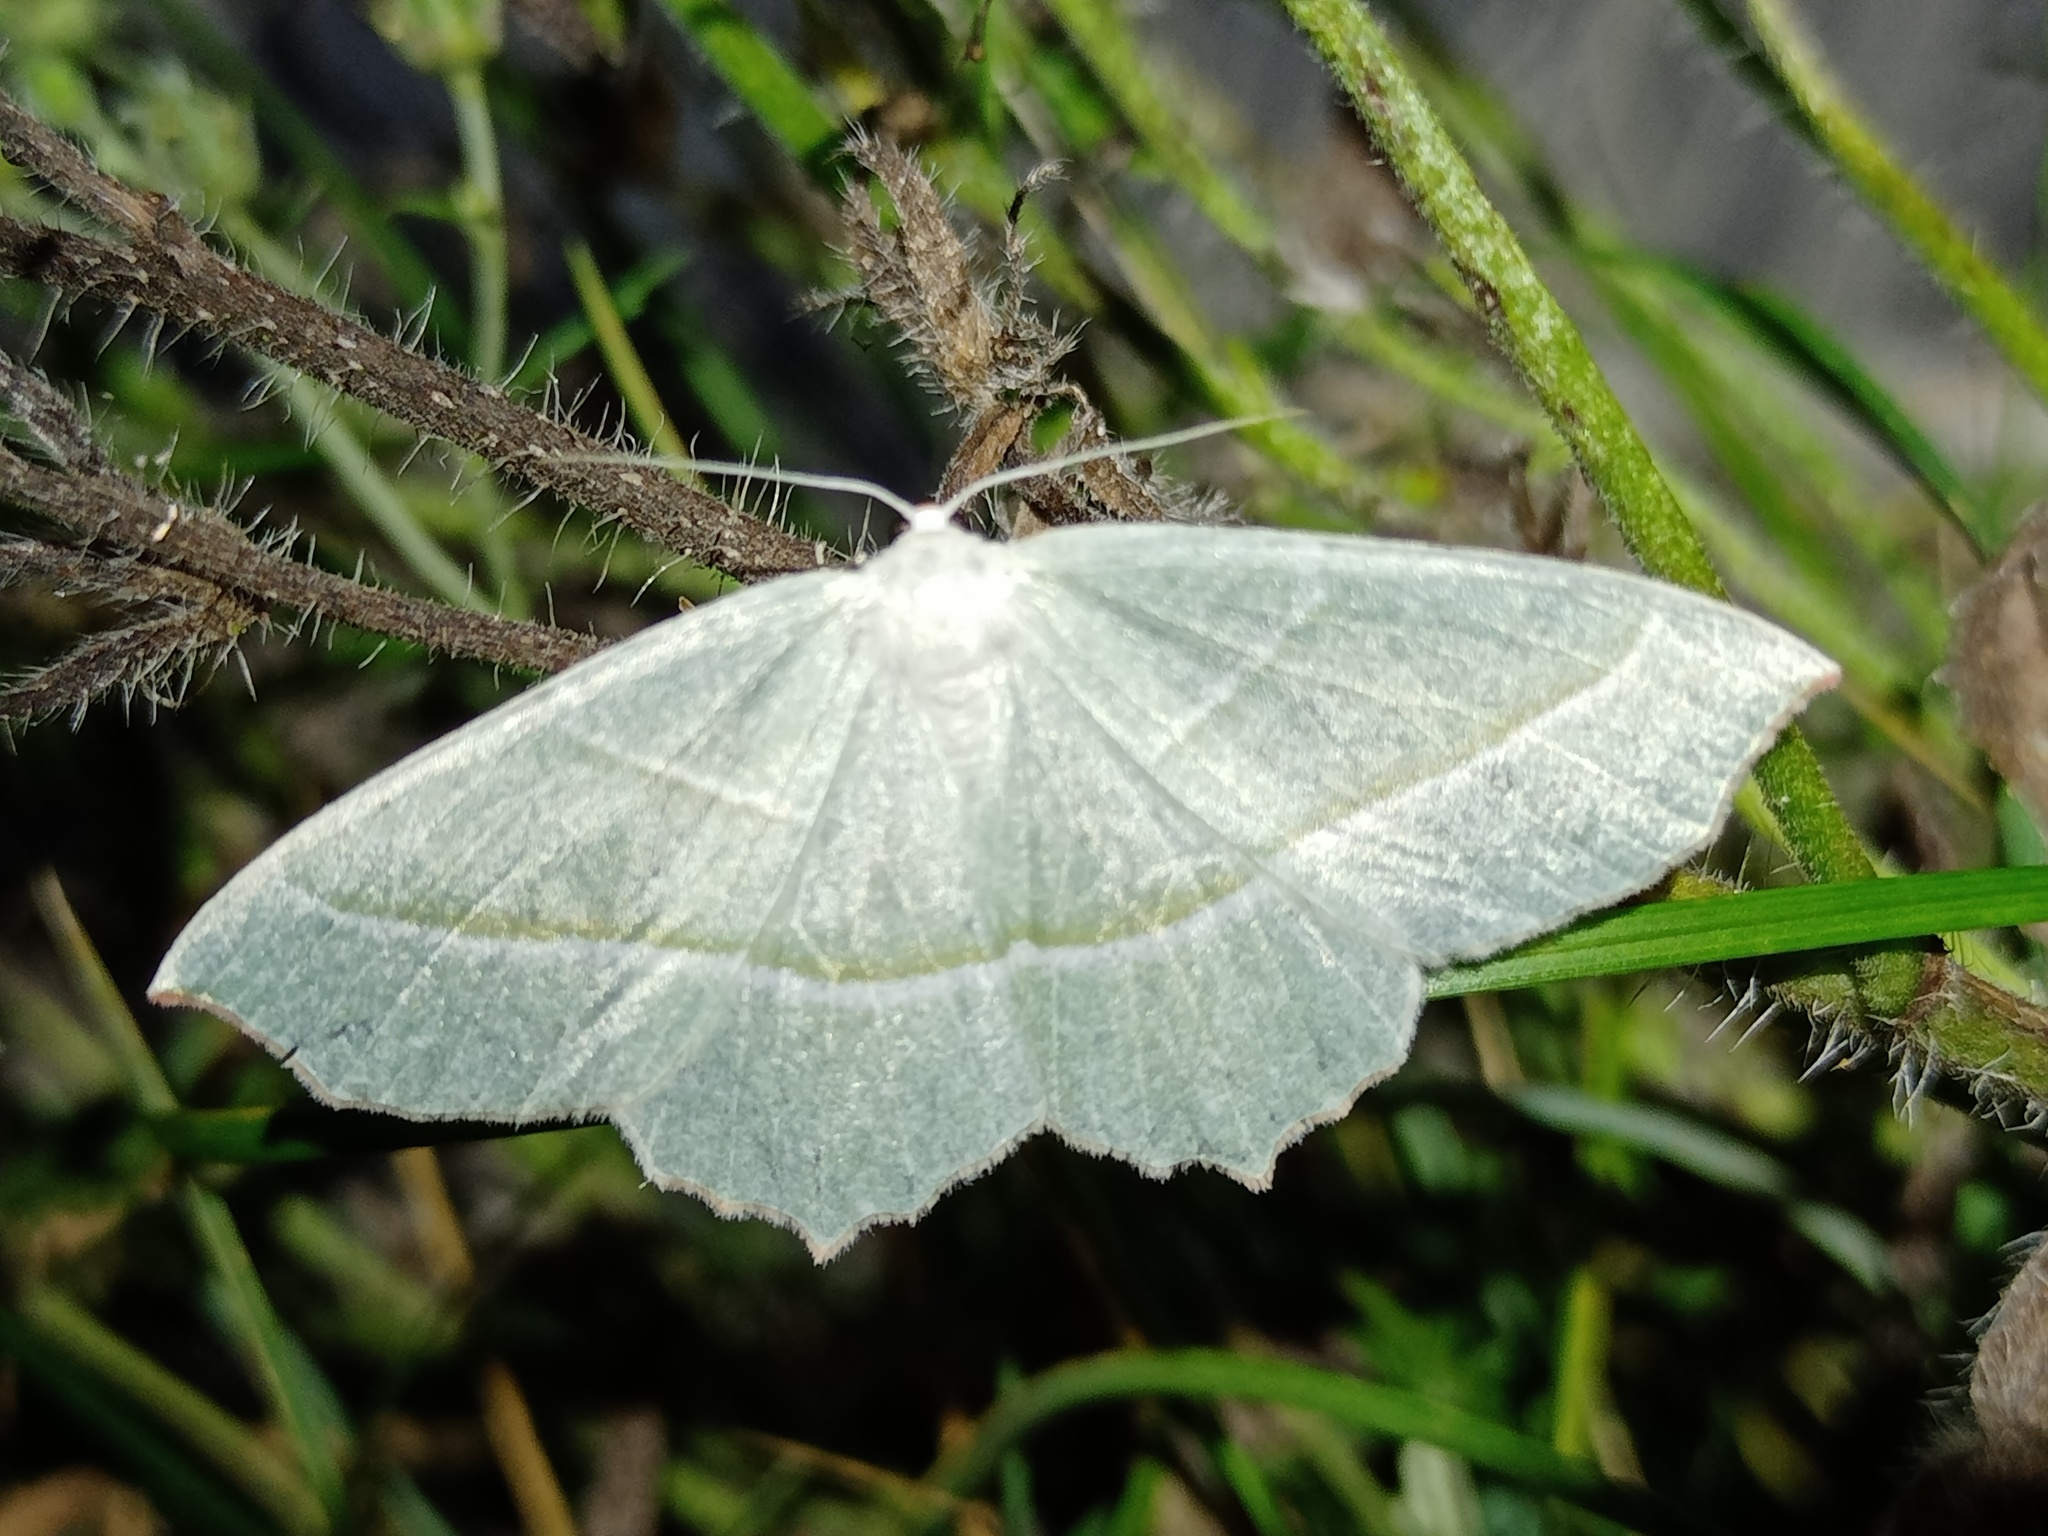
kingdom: Animalia
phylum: Arthropoda
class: Insecta
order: Lepidoptera
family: Geometridae
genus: Campaea
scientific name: Campaea margaritaria
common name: Light emerald
